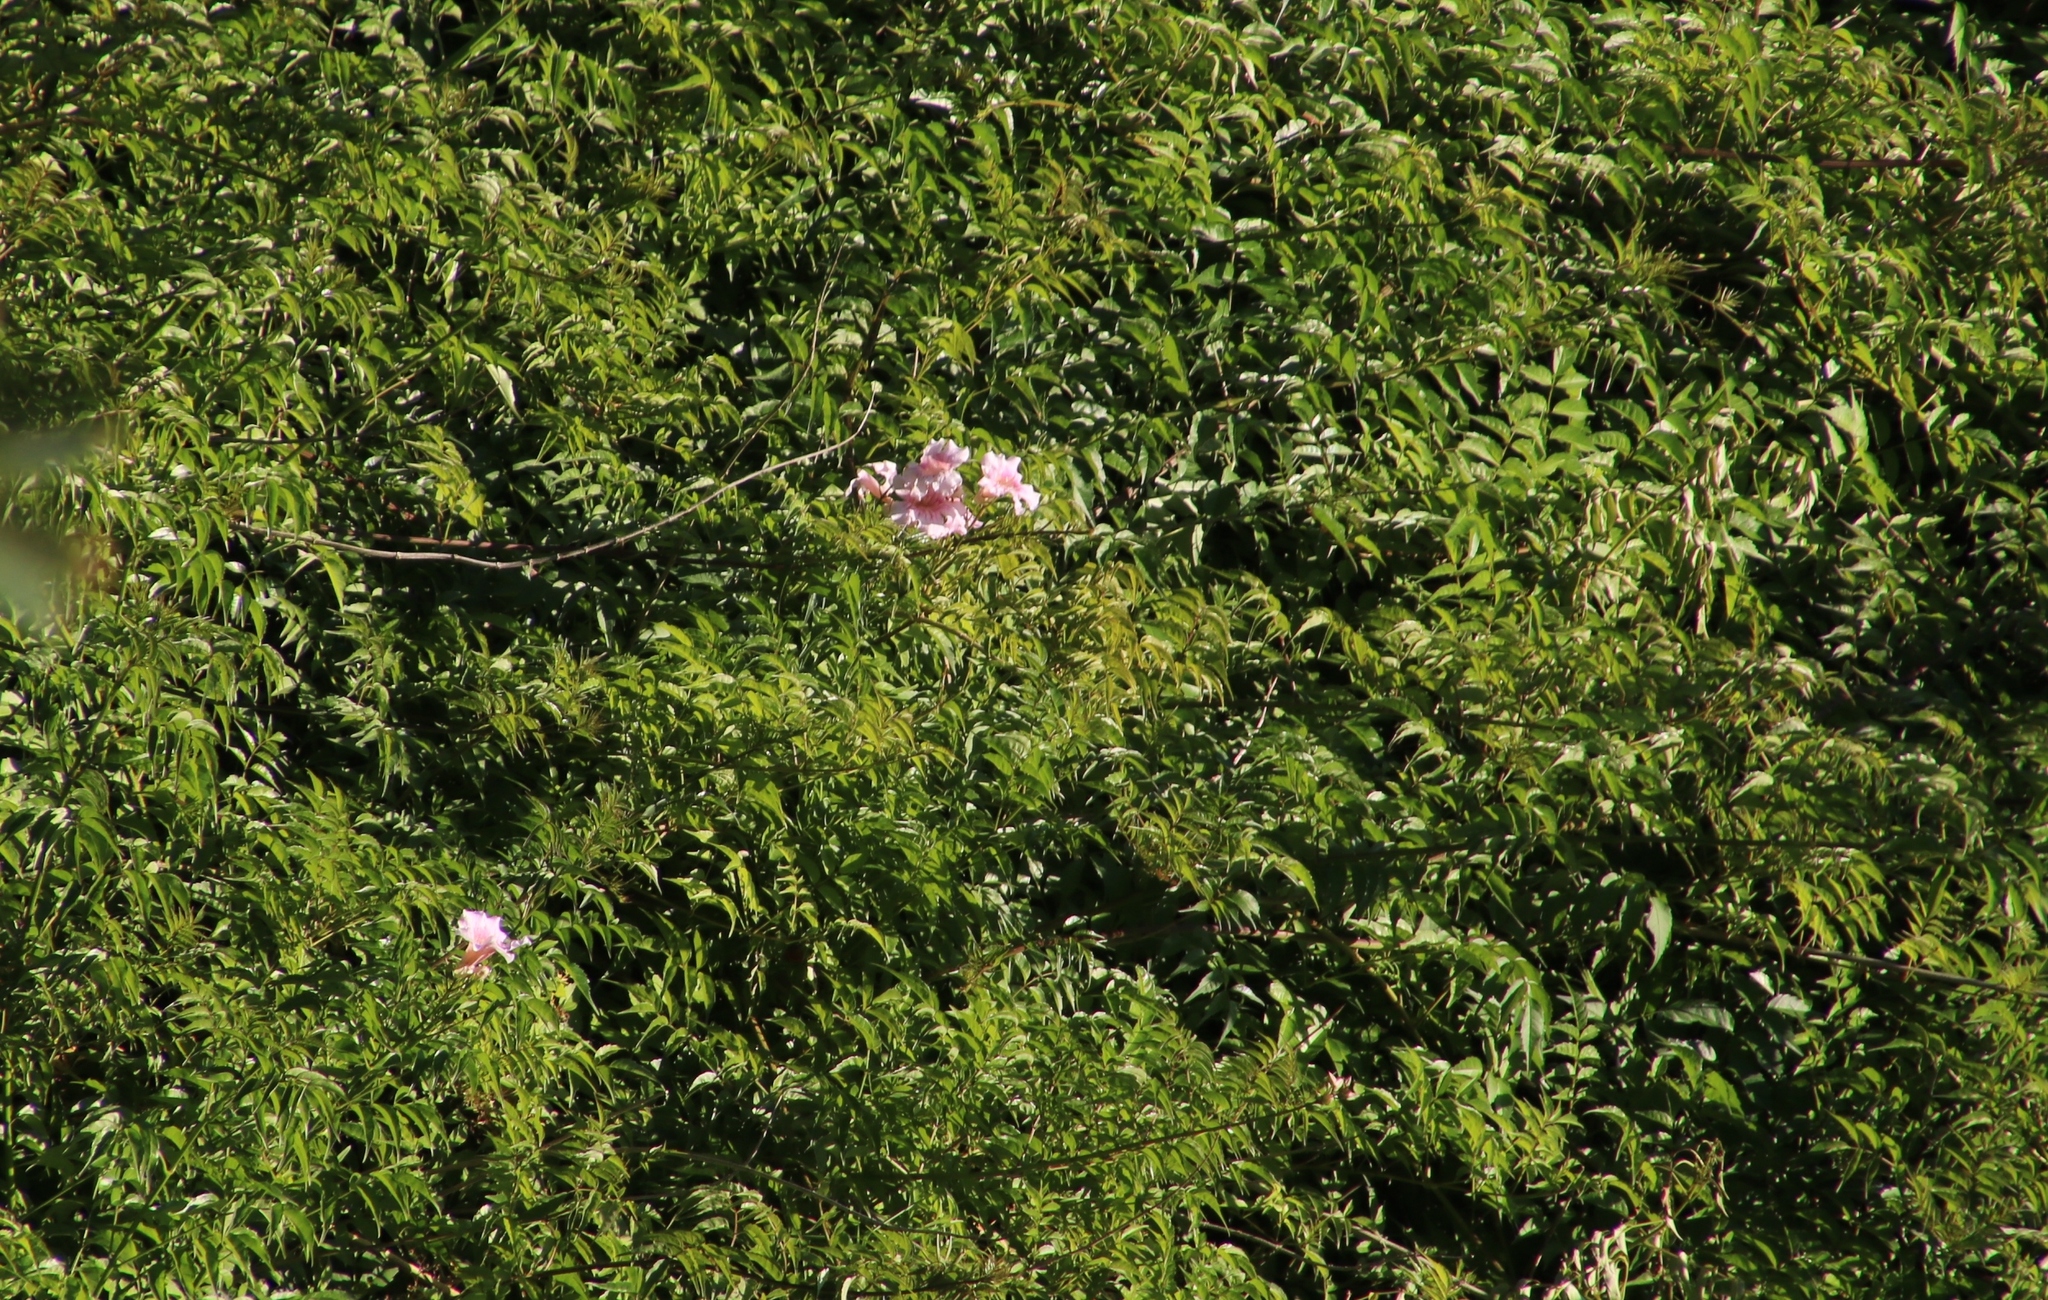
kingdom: Plantae
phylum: Tracheophyta
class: Magnoliopsida
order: Lamiales
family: Bignoniaceae
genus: Podranea
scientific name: Podranea ricasoliana
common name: Zimbabwe creeper
